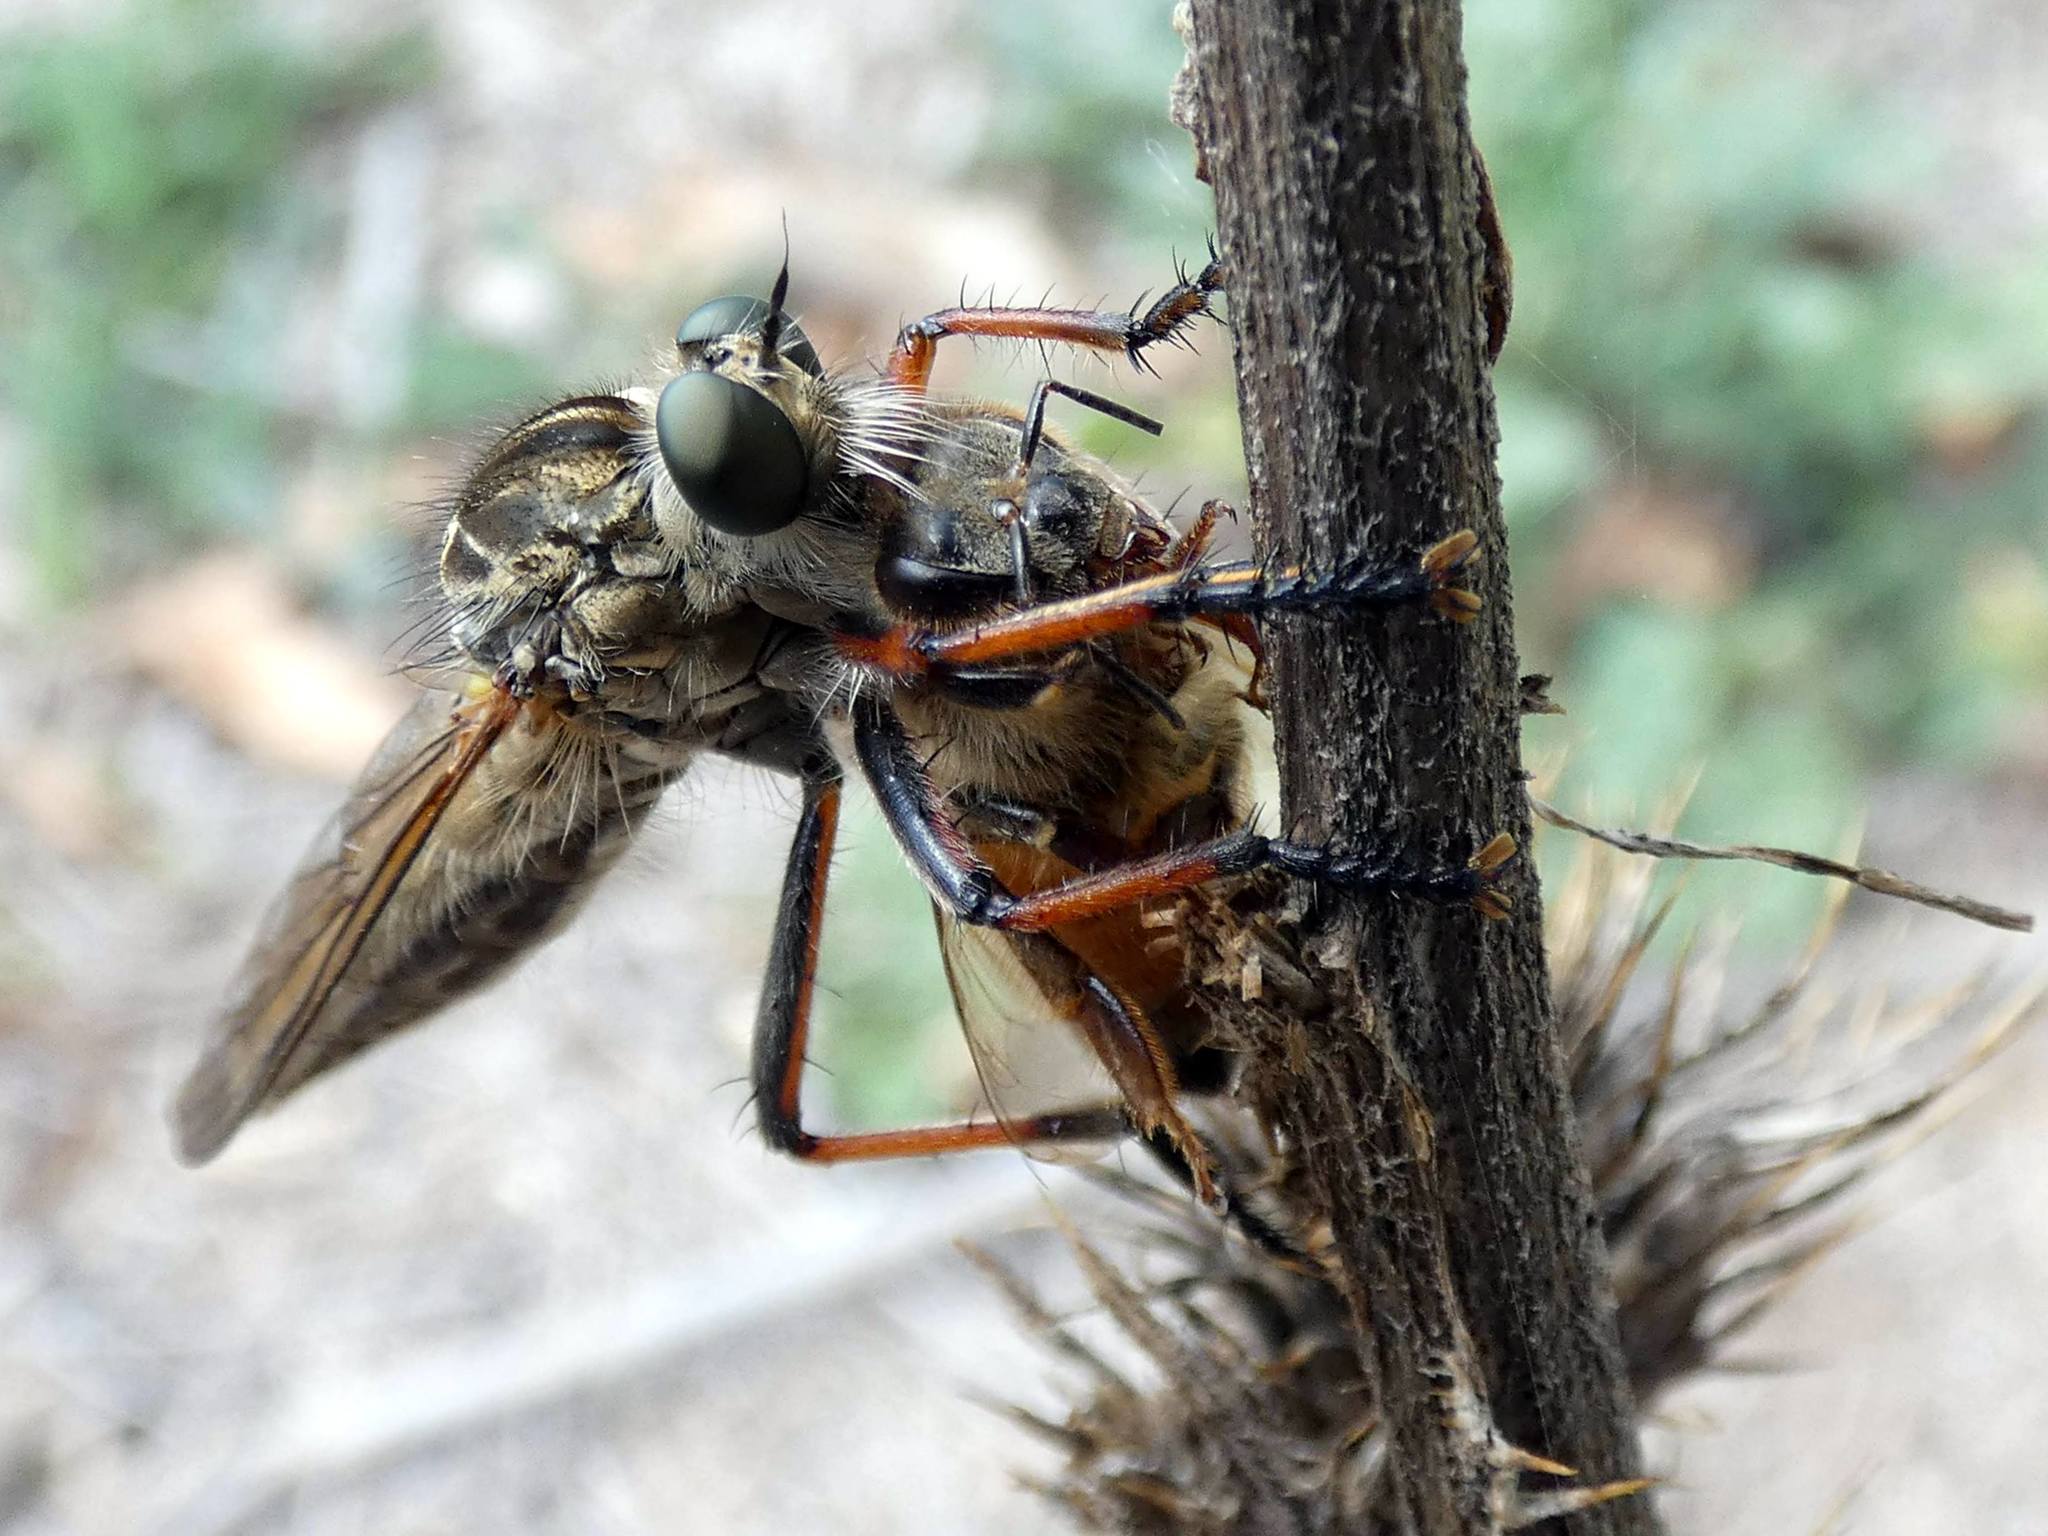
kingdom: Animalia
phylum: Arthropoda
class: Insecta
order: Diptera
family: Asilidae
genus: Dolopus
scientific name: Dolopus rubrithorax
